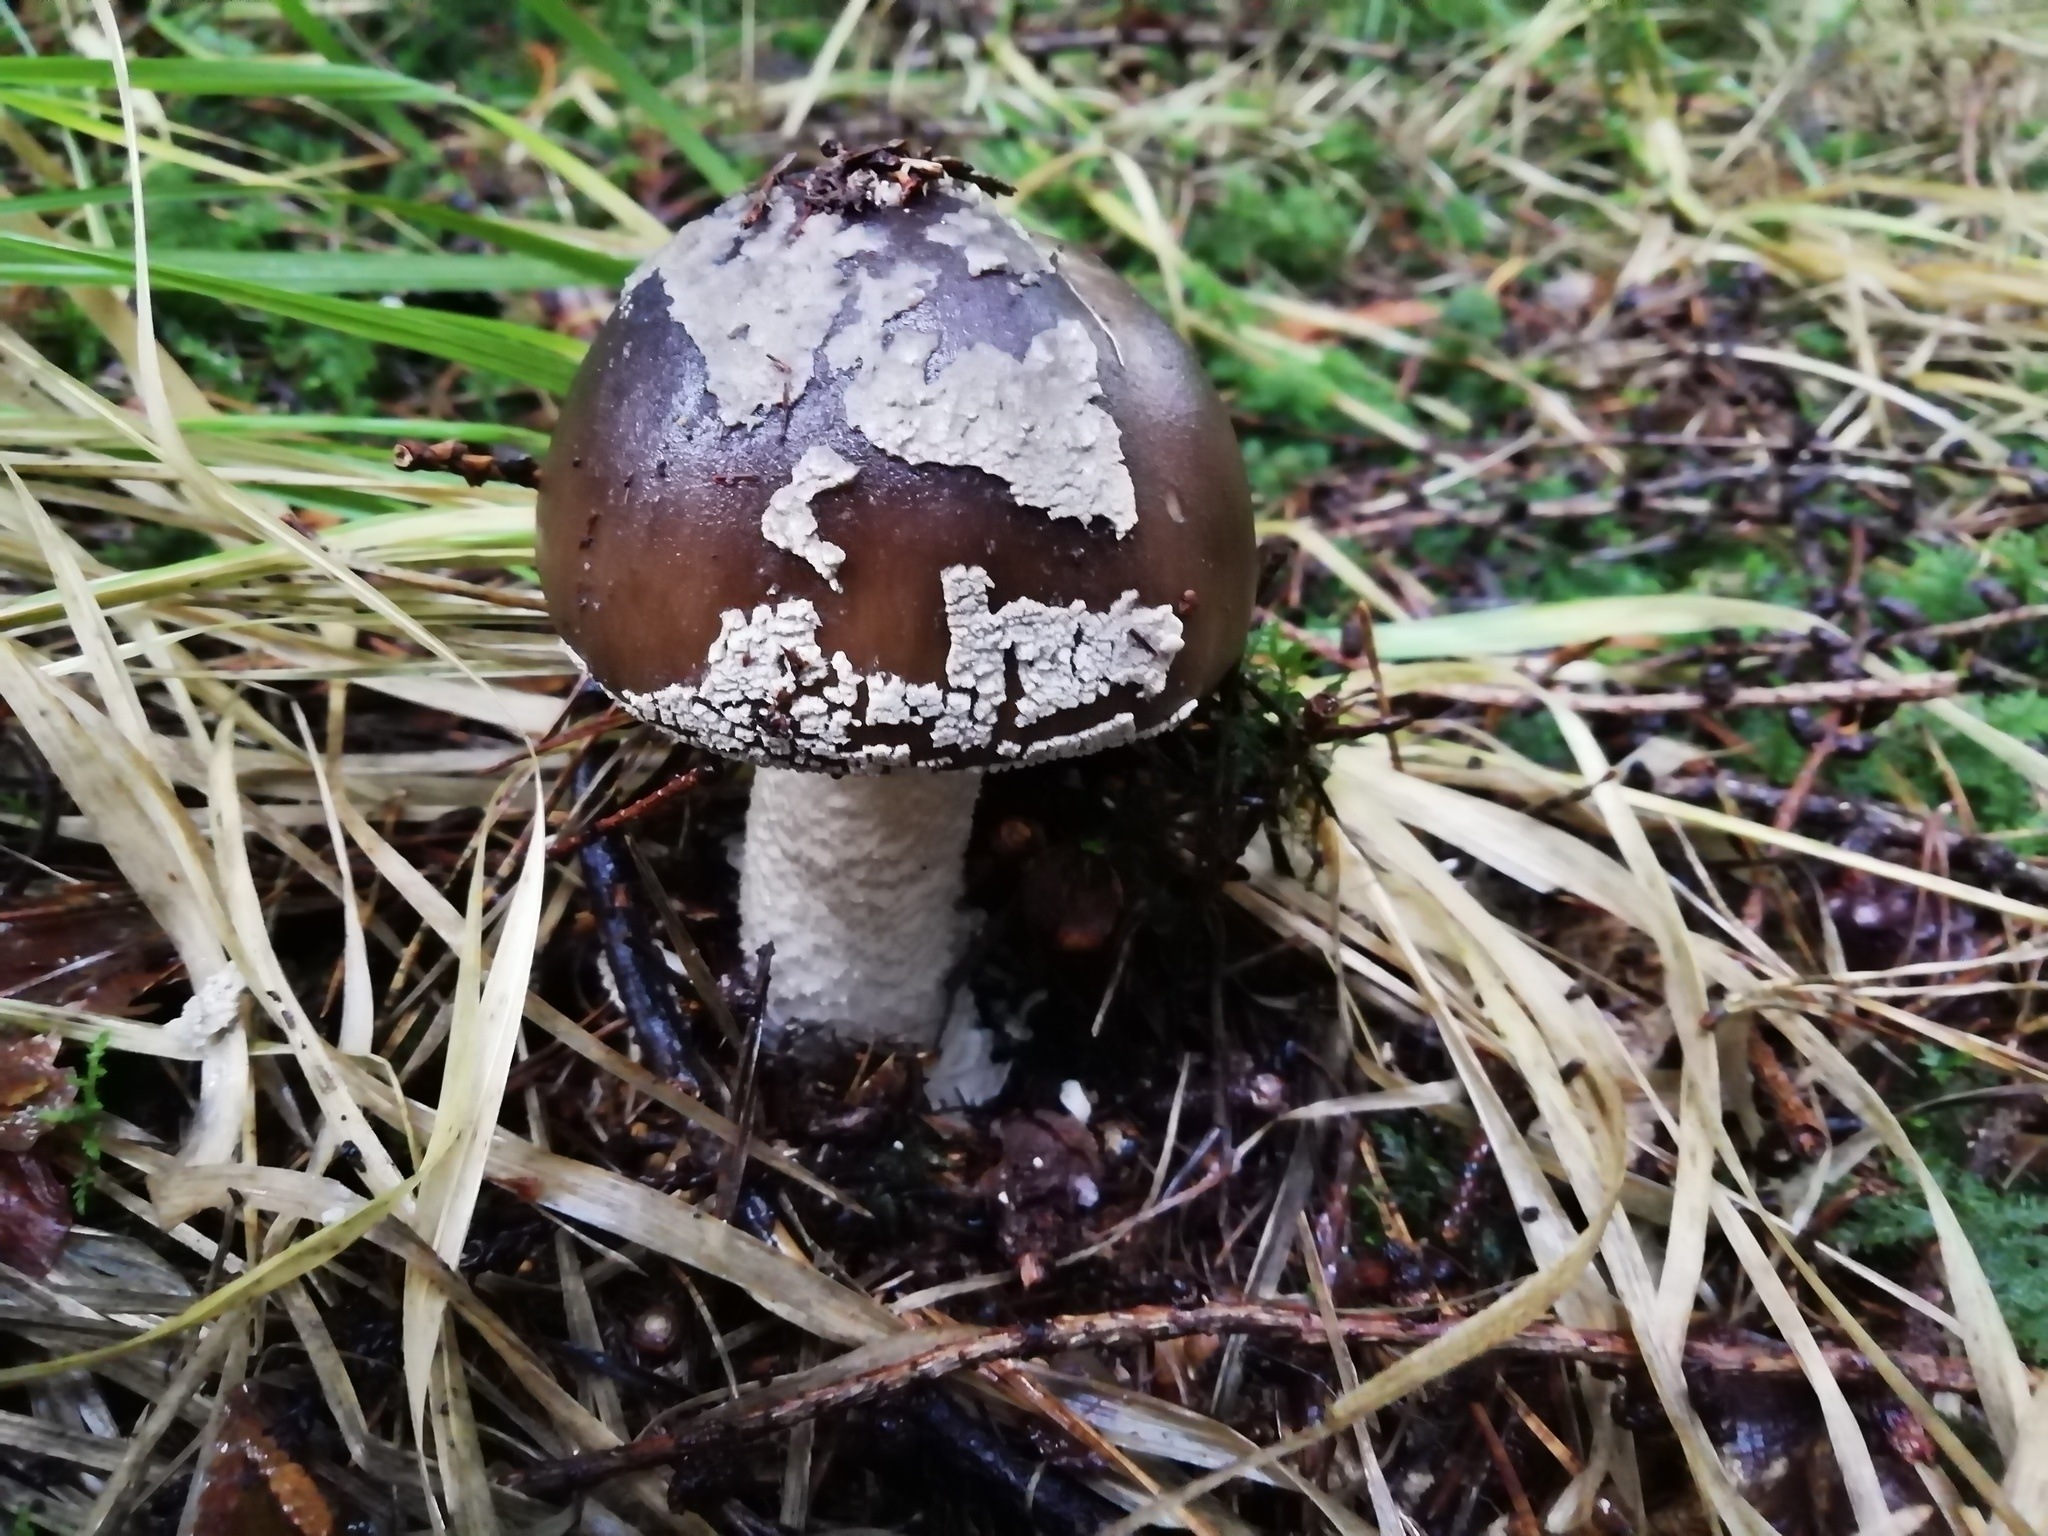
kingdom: Fungi
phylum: Basidiomycota
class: Agaricomycetes
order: Agaricales
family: Amanitaceae
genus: Amanita
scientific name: Amanita pantherina
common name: Panthercap
